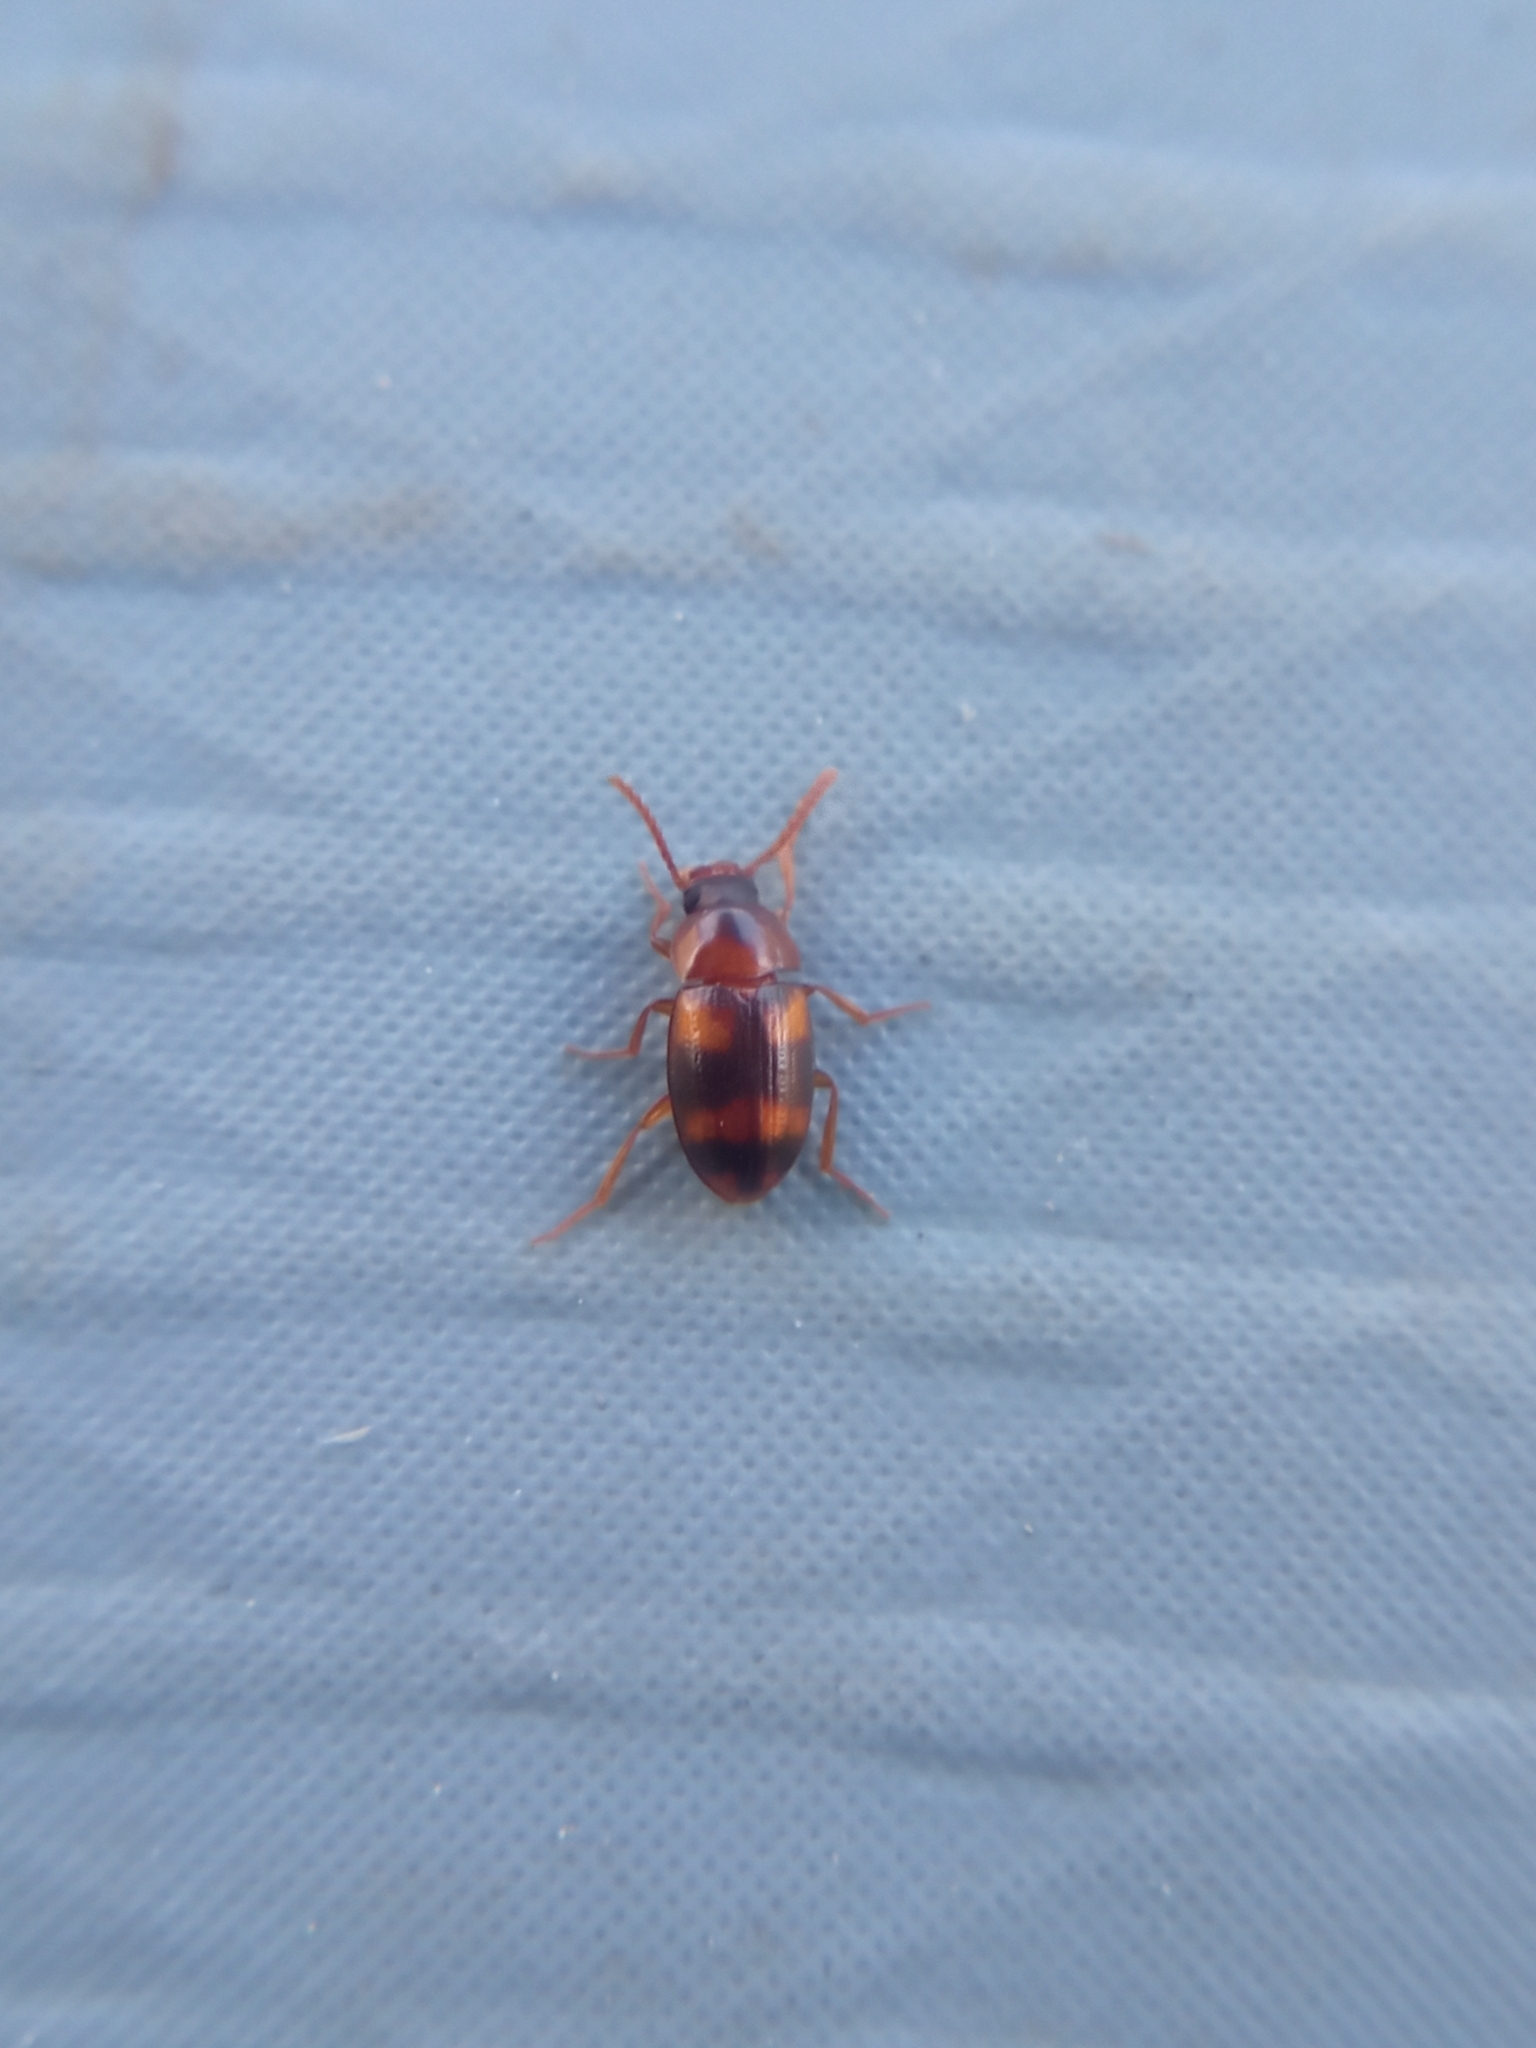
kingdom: Animalia
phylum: Arthropoda
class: Insecta
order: Coleoptera
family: Tenebrionidae
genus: Alphitophagus
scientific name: Alphitophagus bifasciatus
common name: Two-banded fungus beetle
